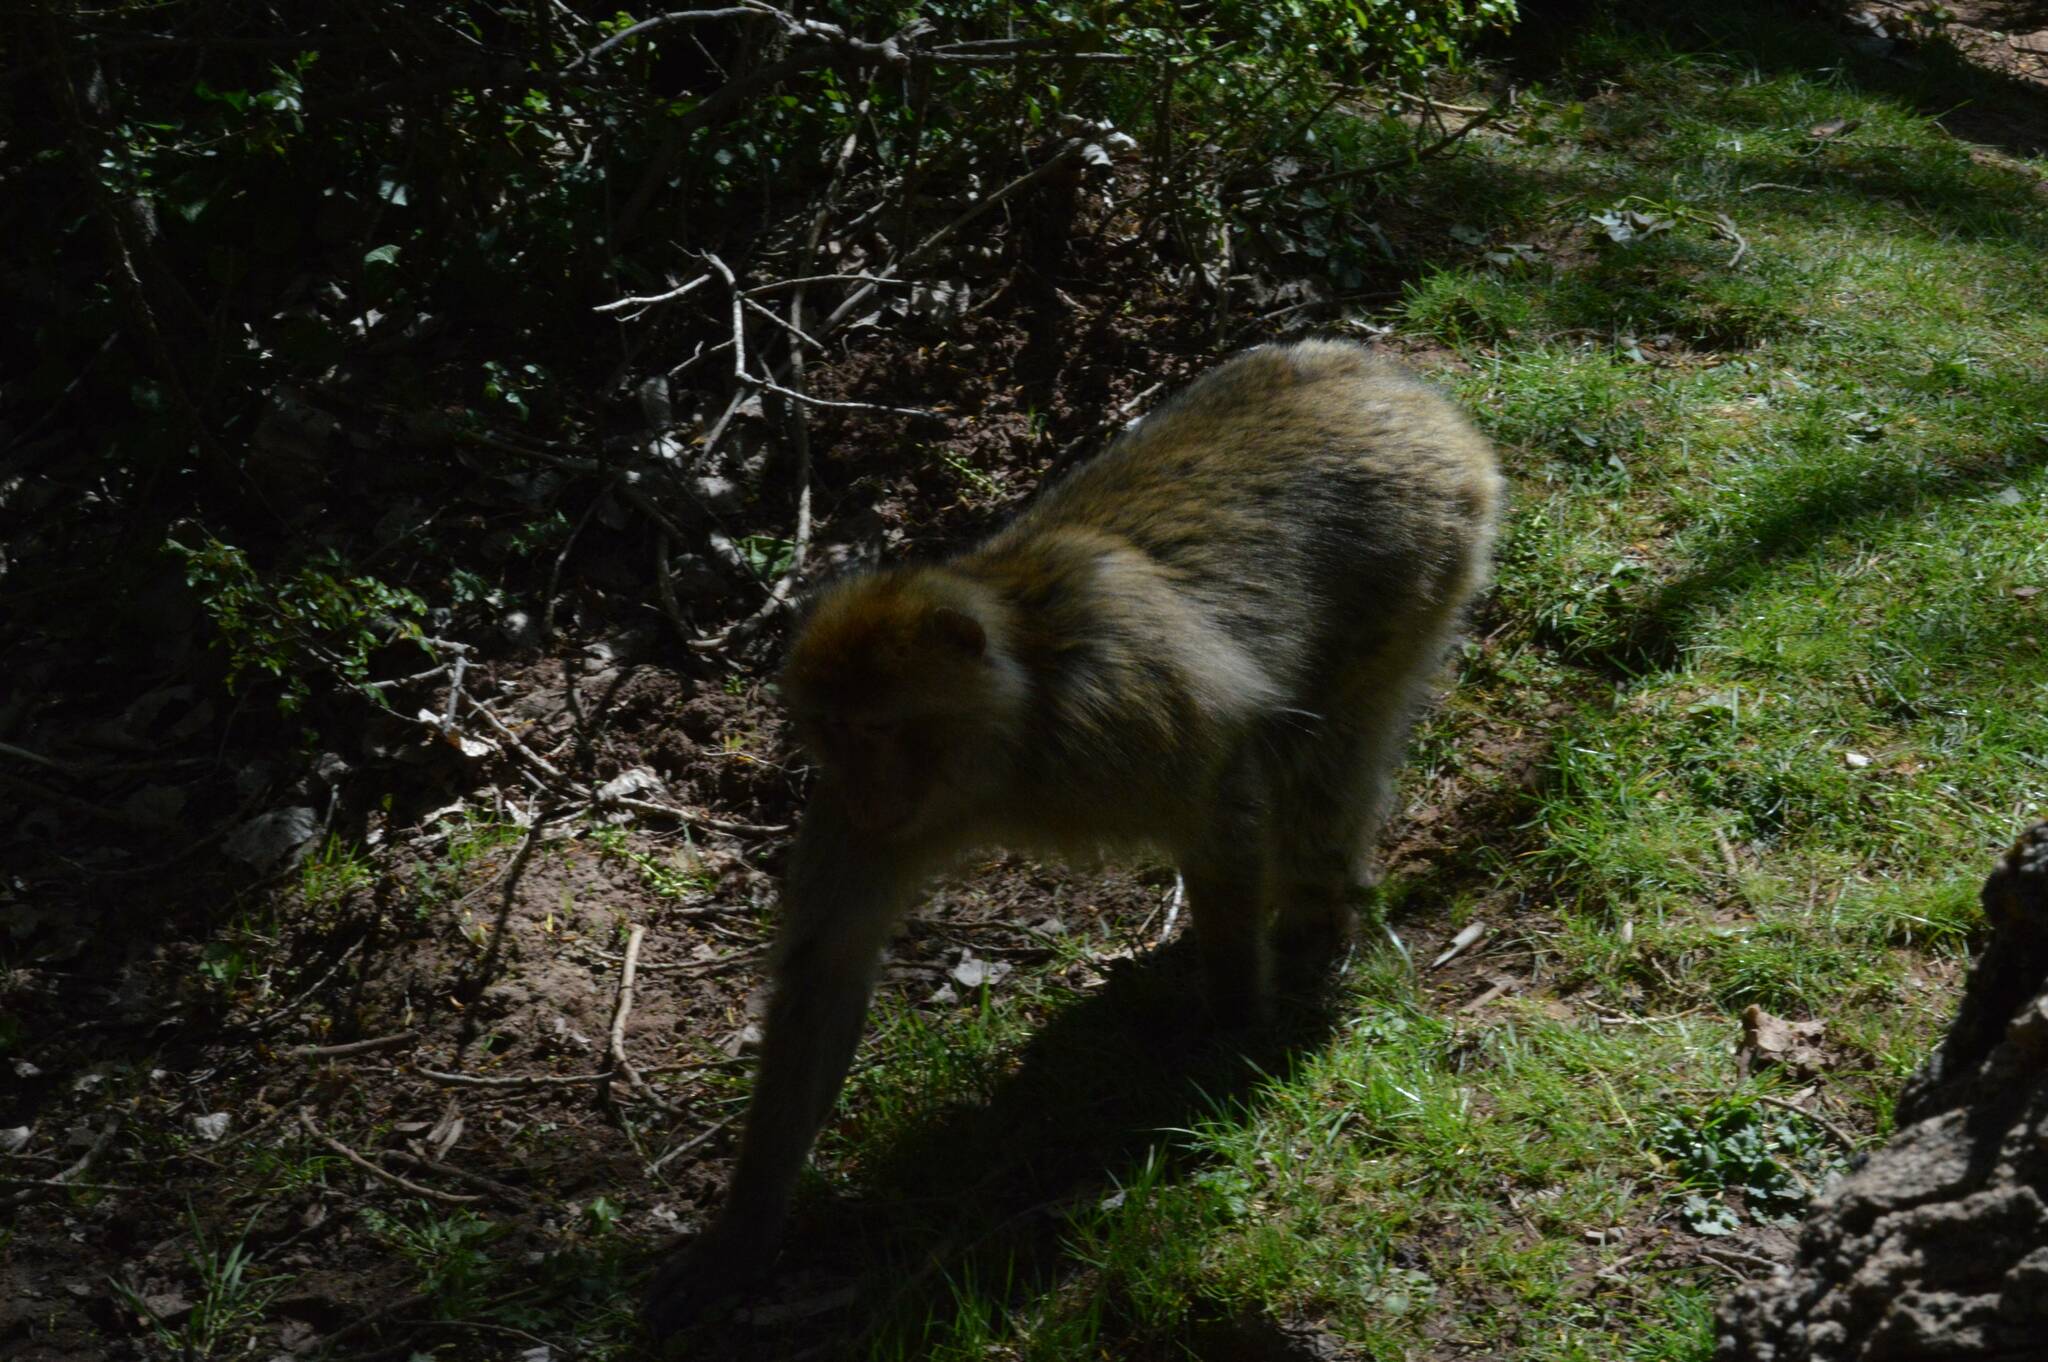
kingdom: Animalia
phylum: Chordata
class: Mammalia
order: Primates
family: Cercopithecidae
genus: Macaca
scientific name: Macaca sylvanus
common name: Barbary macaque
